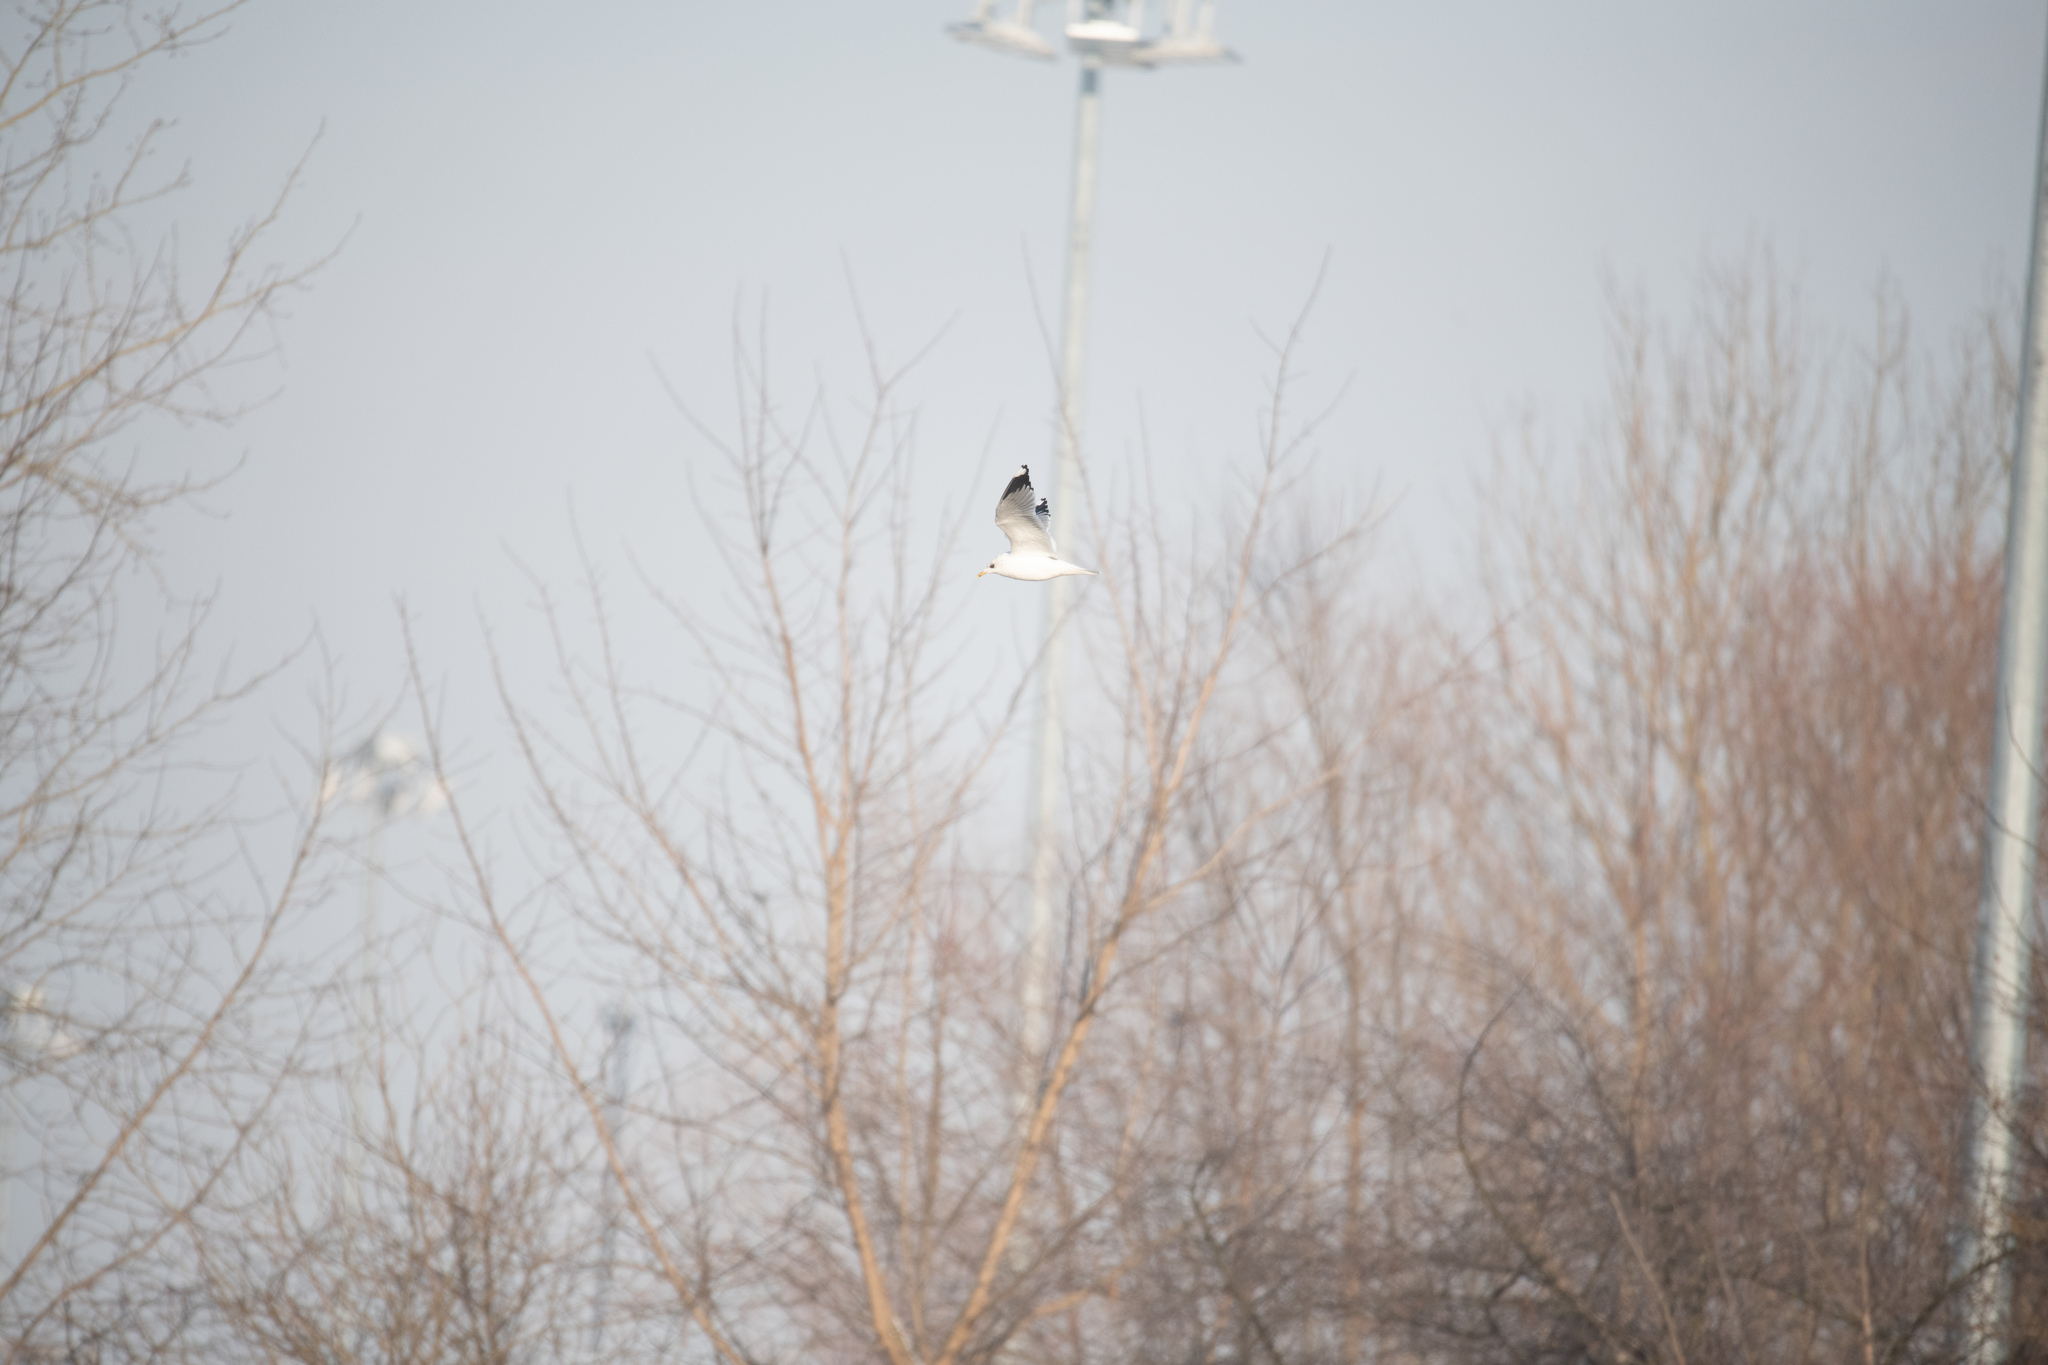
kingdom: Animalia
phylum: Chordata
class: Aves
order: Charadriiformes
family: Laridae
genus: Larus
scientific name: Larus canus
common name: Mew gull
